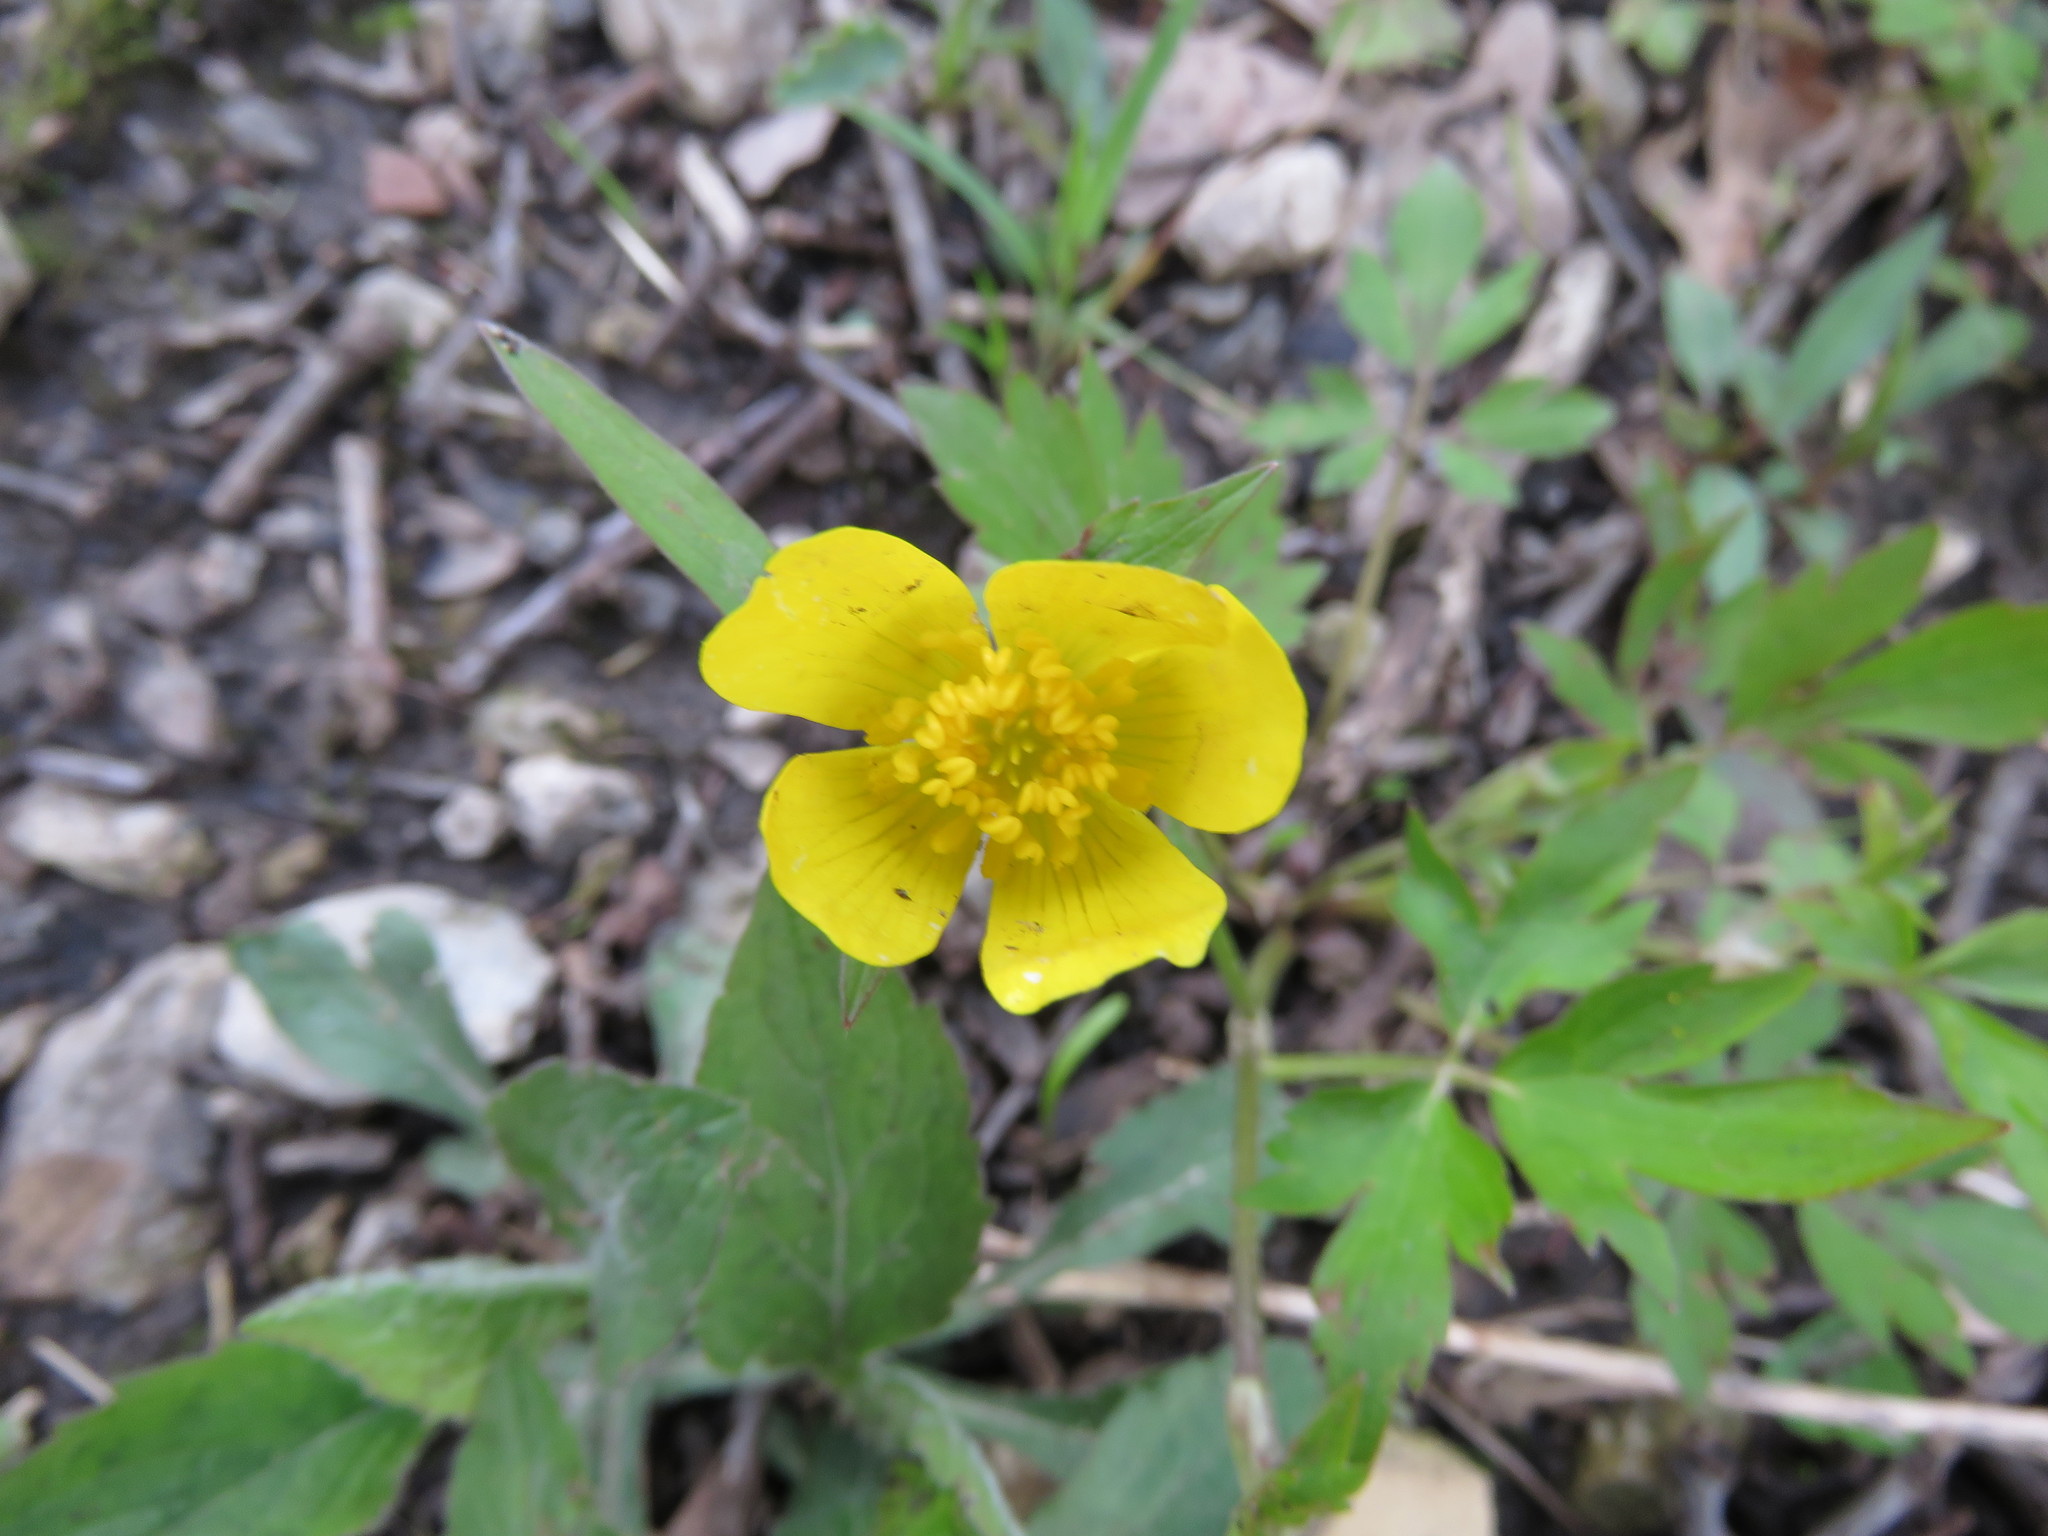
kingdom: Plantae
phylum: Tracheophyta
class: Magnoliopsida
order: Ranunculales
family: Ranunculaceae
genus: Ranunculus
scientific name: Ranunculus hispidus
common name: Bristly buttercup
